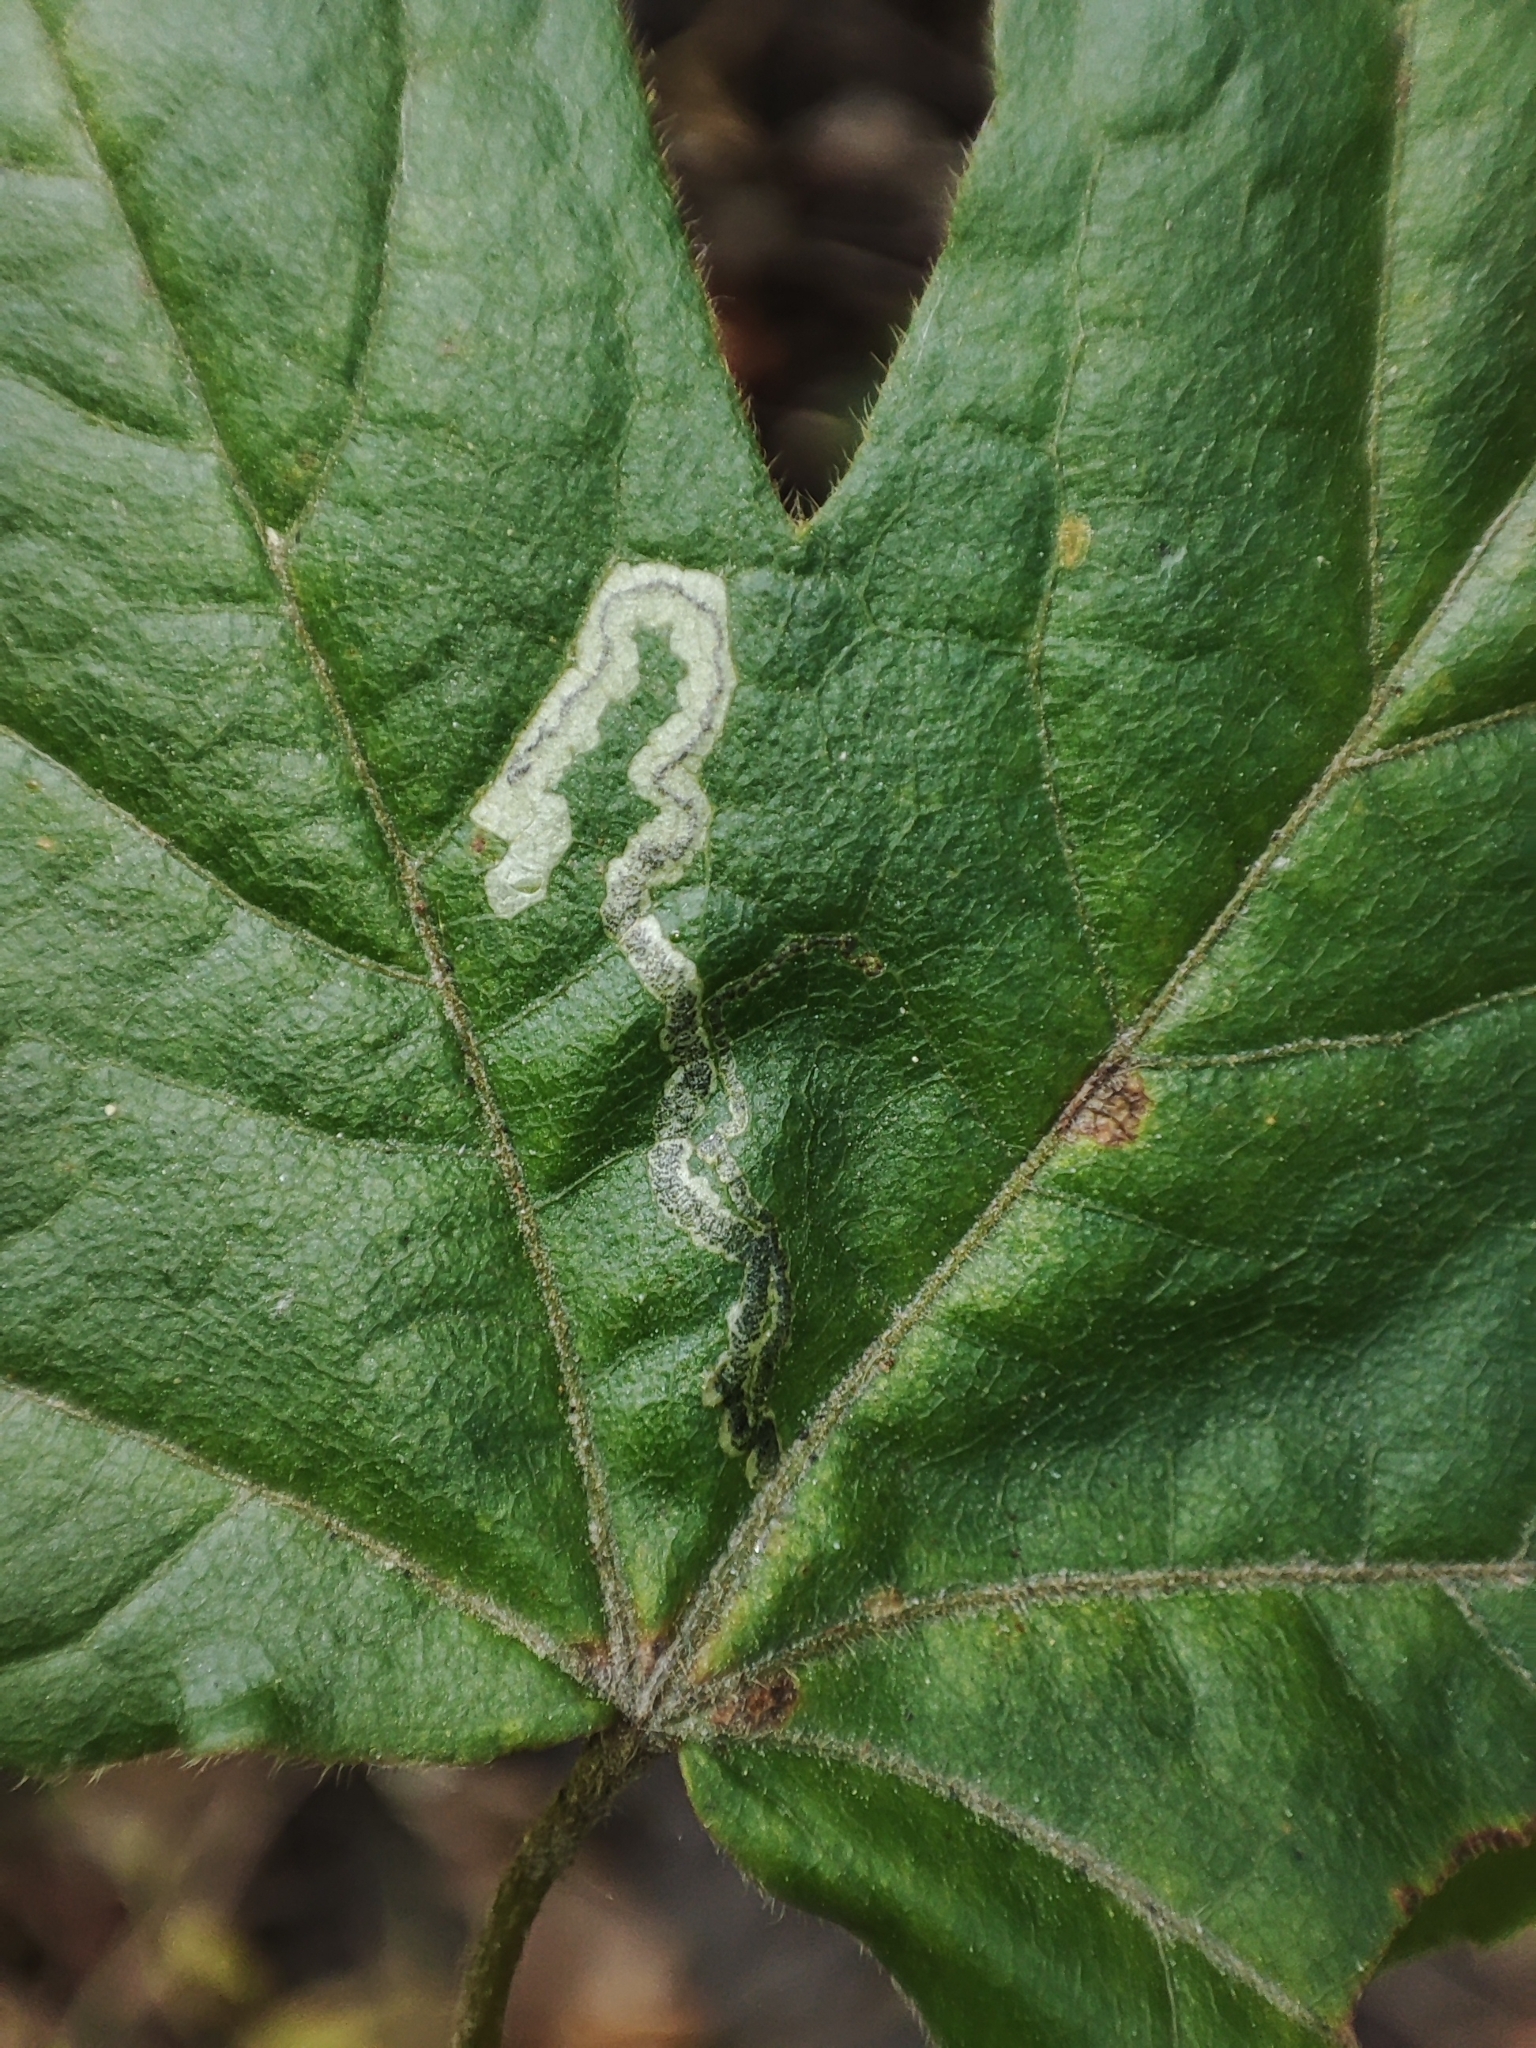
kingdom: Plantae
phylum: Tracheophyta
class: Magnoliopsida
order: Sapindales
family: Sapindaceae
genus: Acer
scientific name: Acer campestre
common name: Field maple
